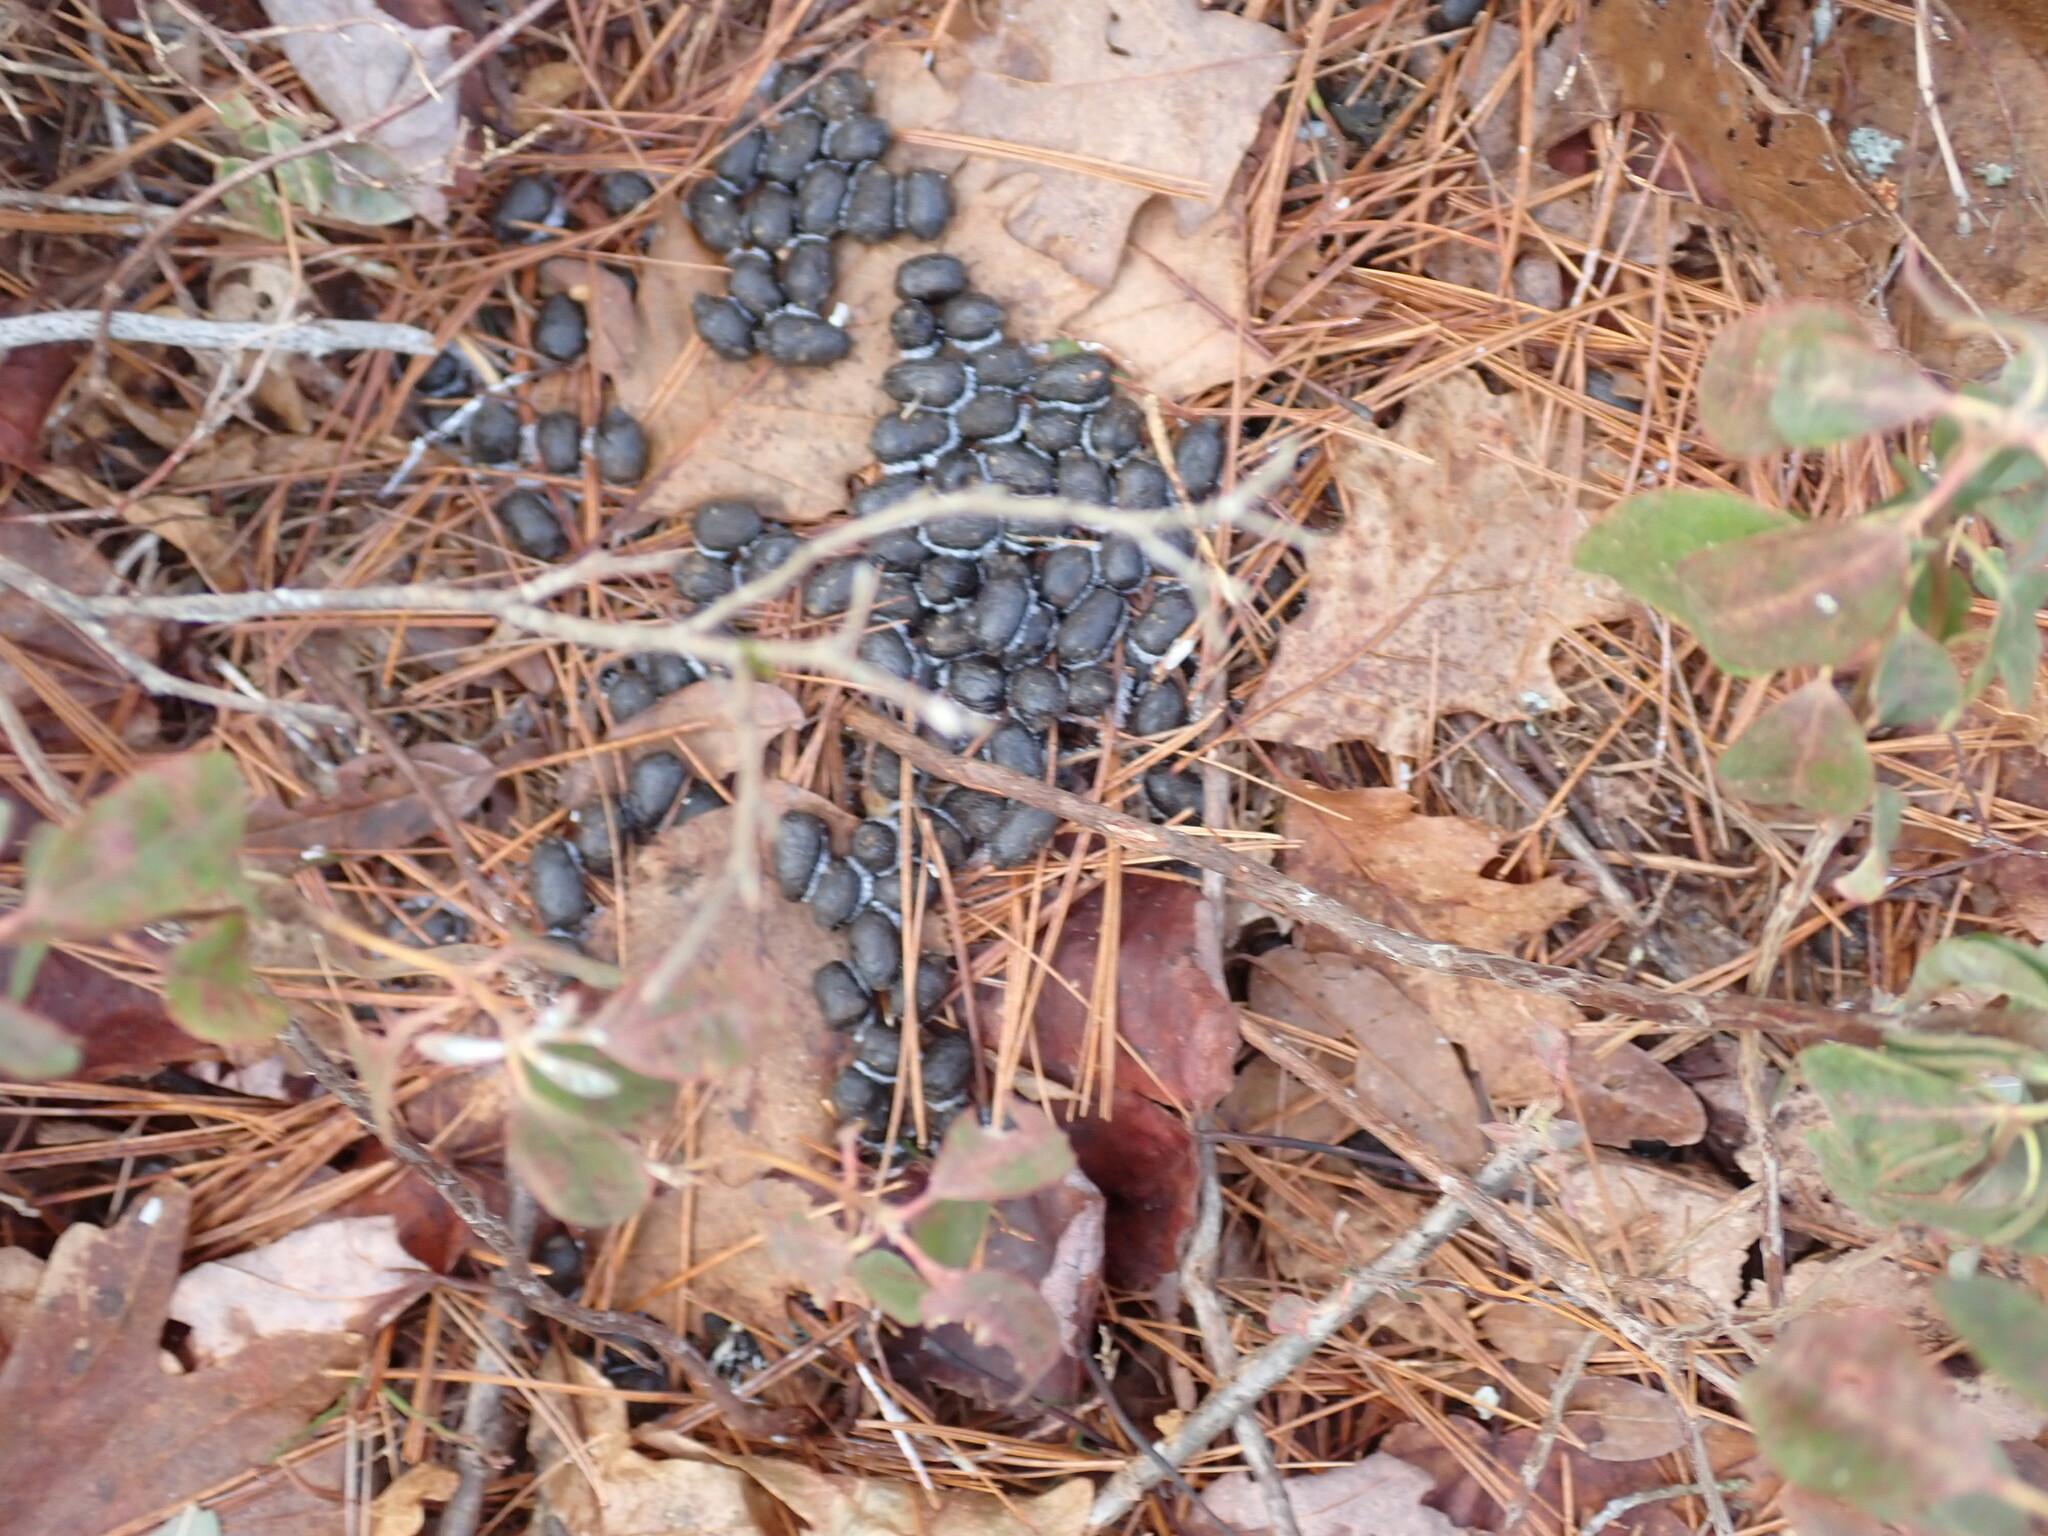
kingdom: Animalia
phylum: Chordata
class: Mammalia
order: Artiodactyla
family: Cervidae
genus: Odocoileus
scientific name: Odocoileus virginianus
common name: White-tailed deer
